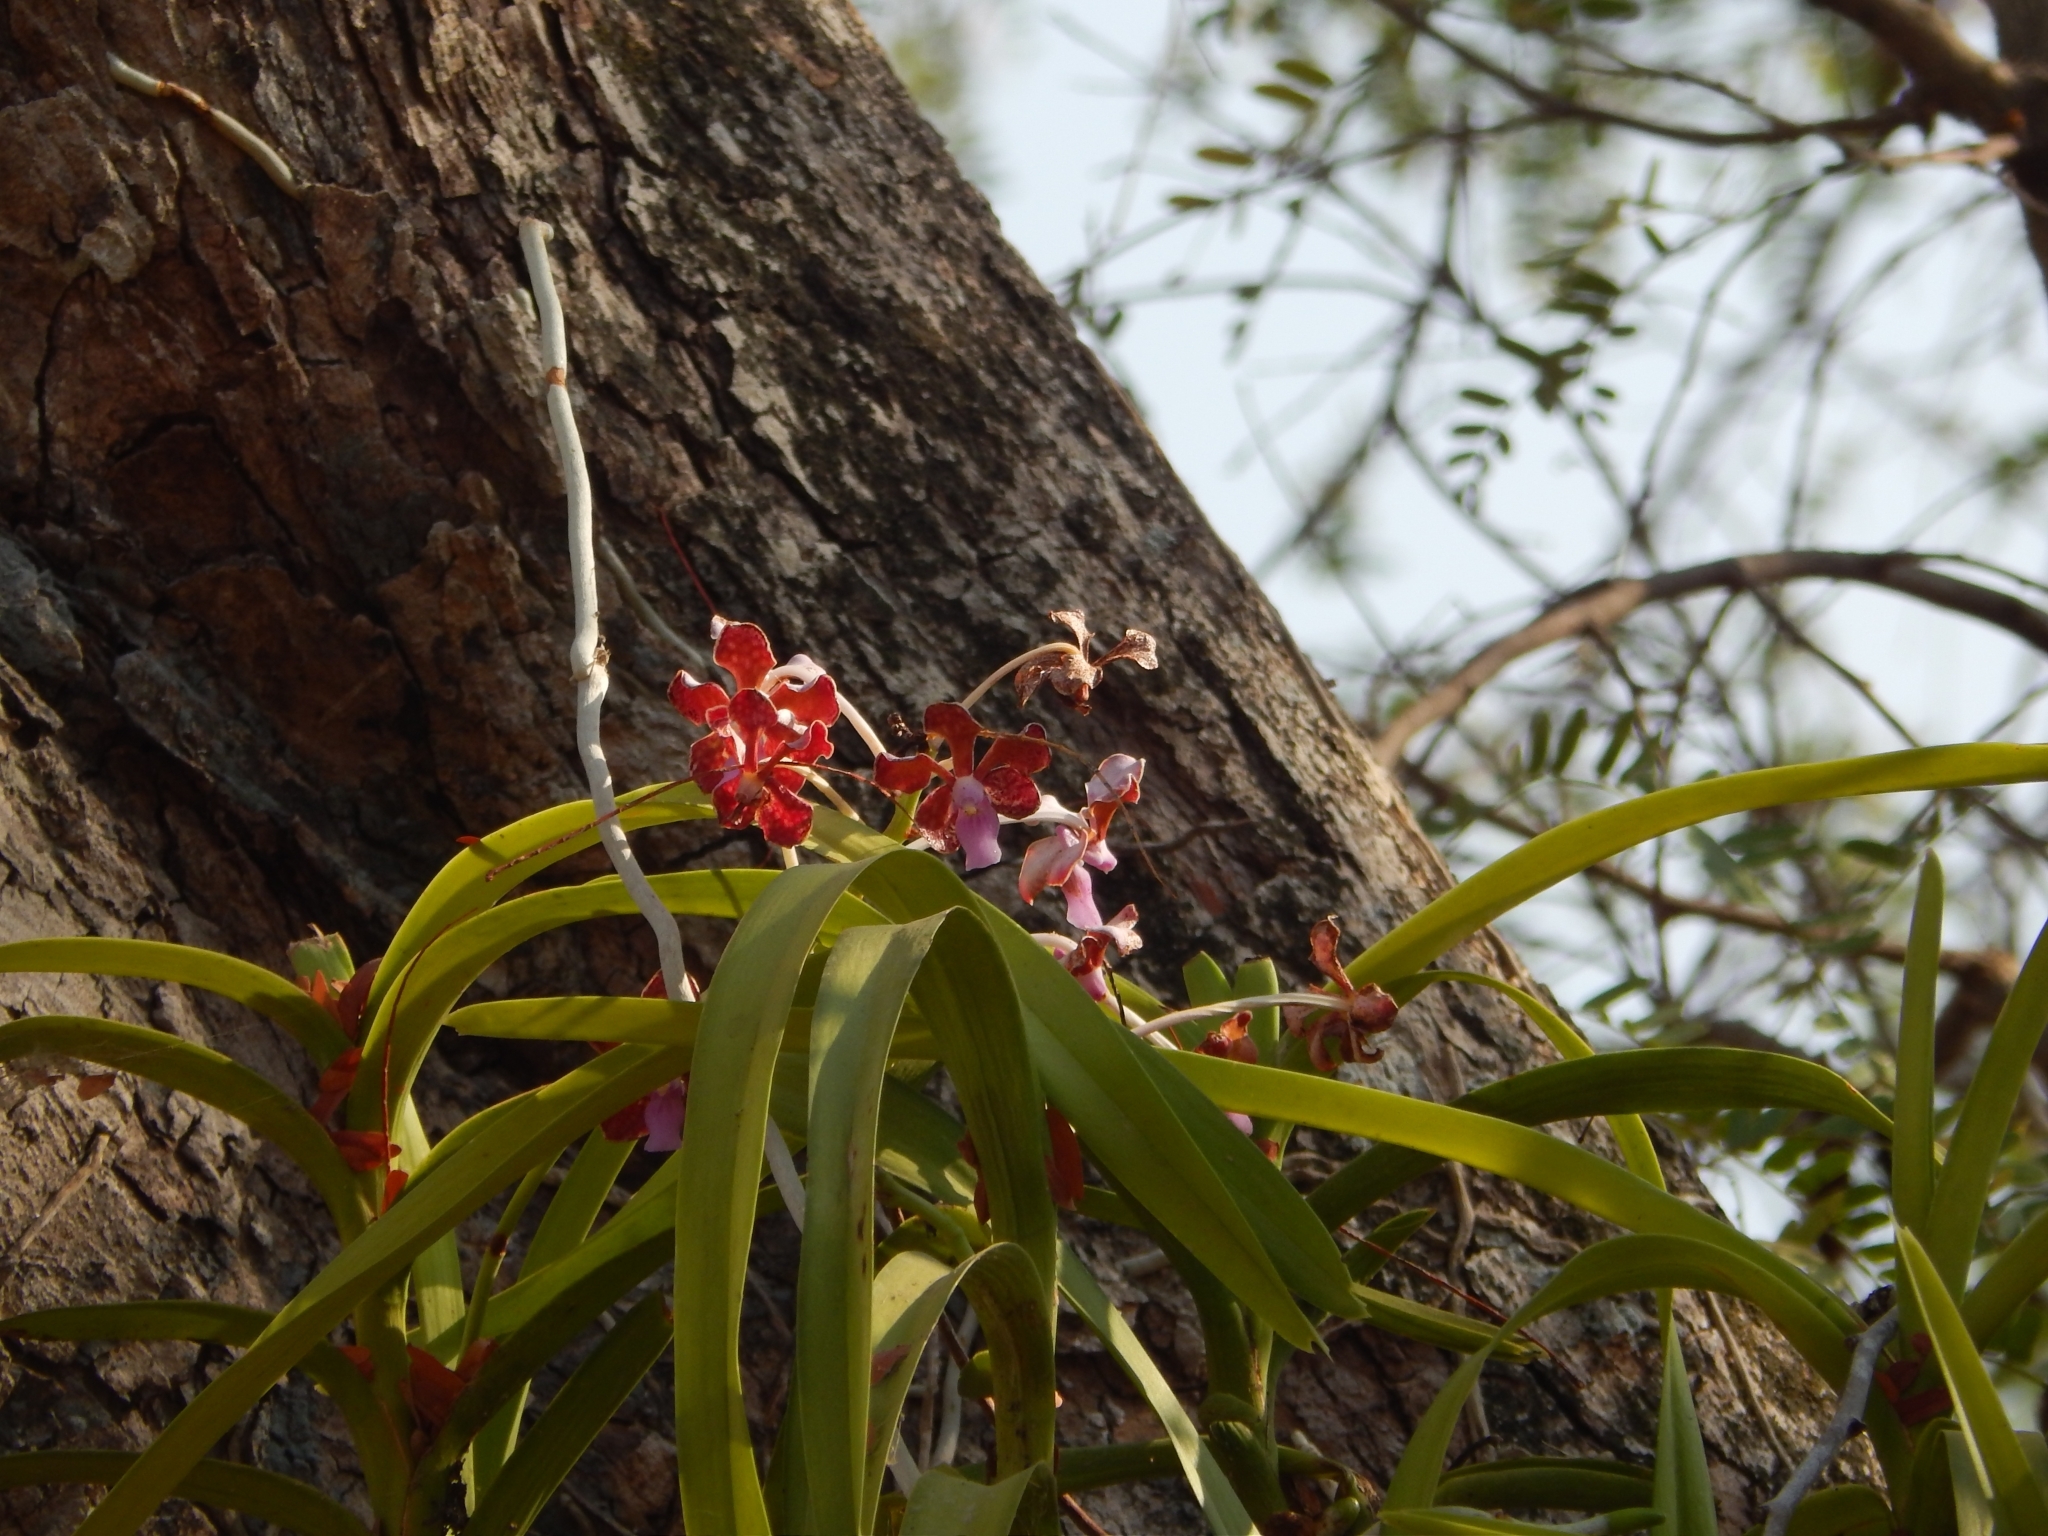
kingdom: Plantae
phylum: Tracheophyta
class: Liliopsida
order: Asparagales
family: Orchidaceae
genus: Vanda
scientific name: Vanda perplexa
